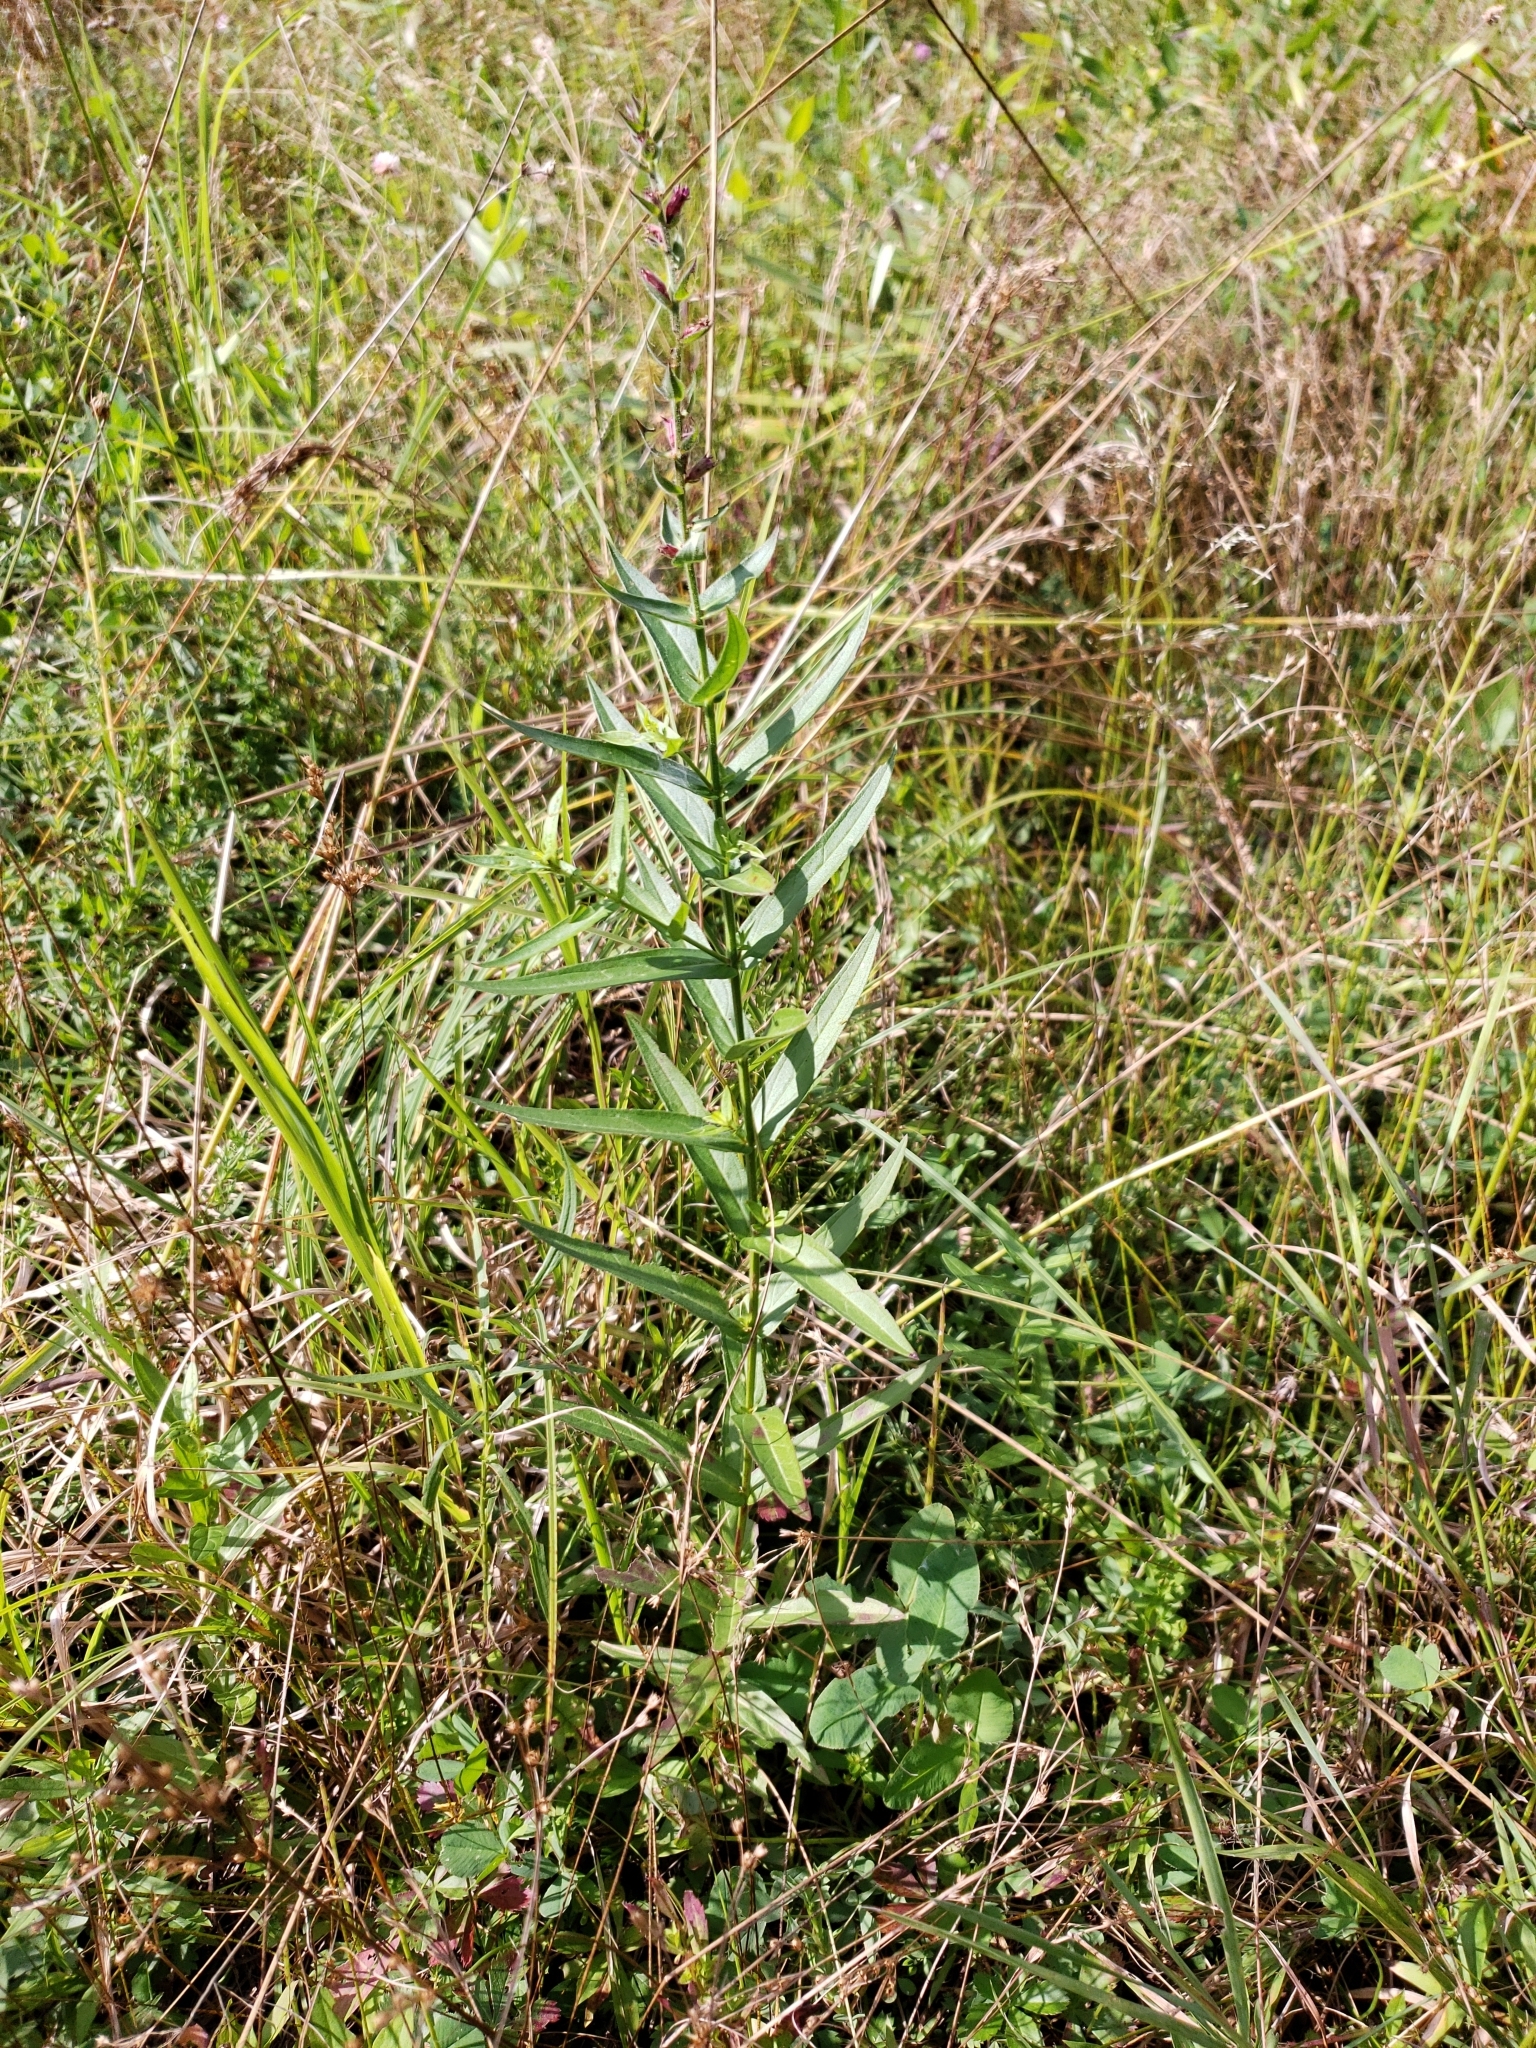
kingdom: Plantae
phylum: Tracheophyta
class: Magnoliopsida
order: Myrtales
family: Lythraceae
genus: Lythrum
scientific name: Lythrum salicaria
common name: Purple loosestrife
